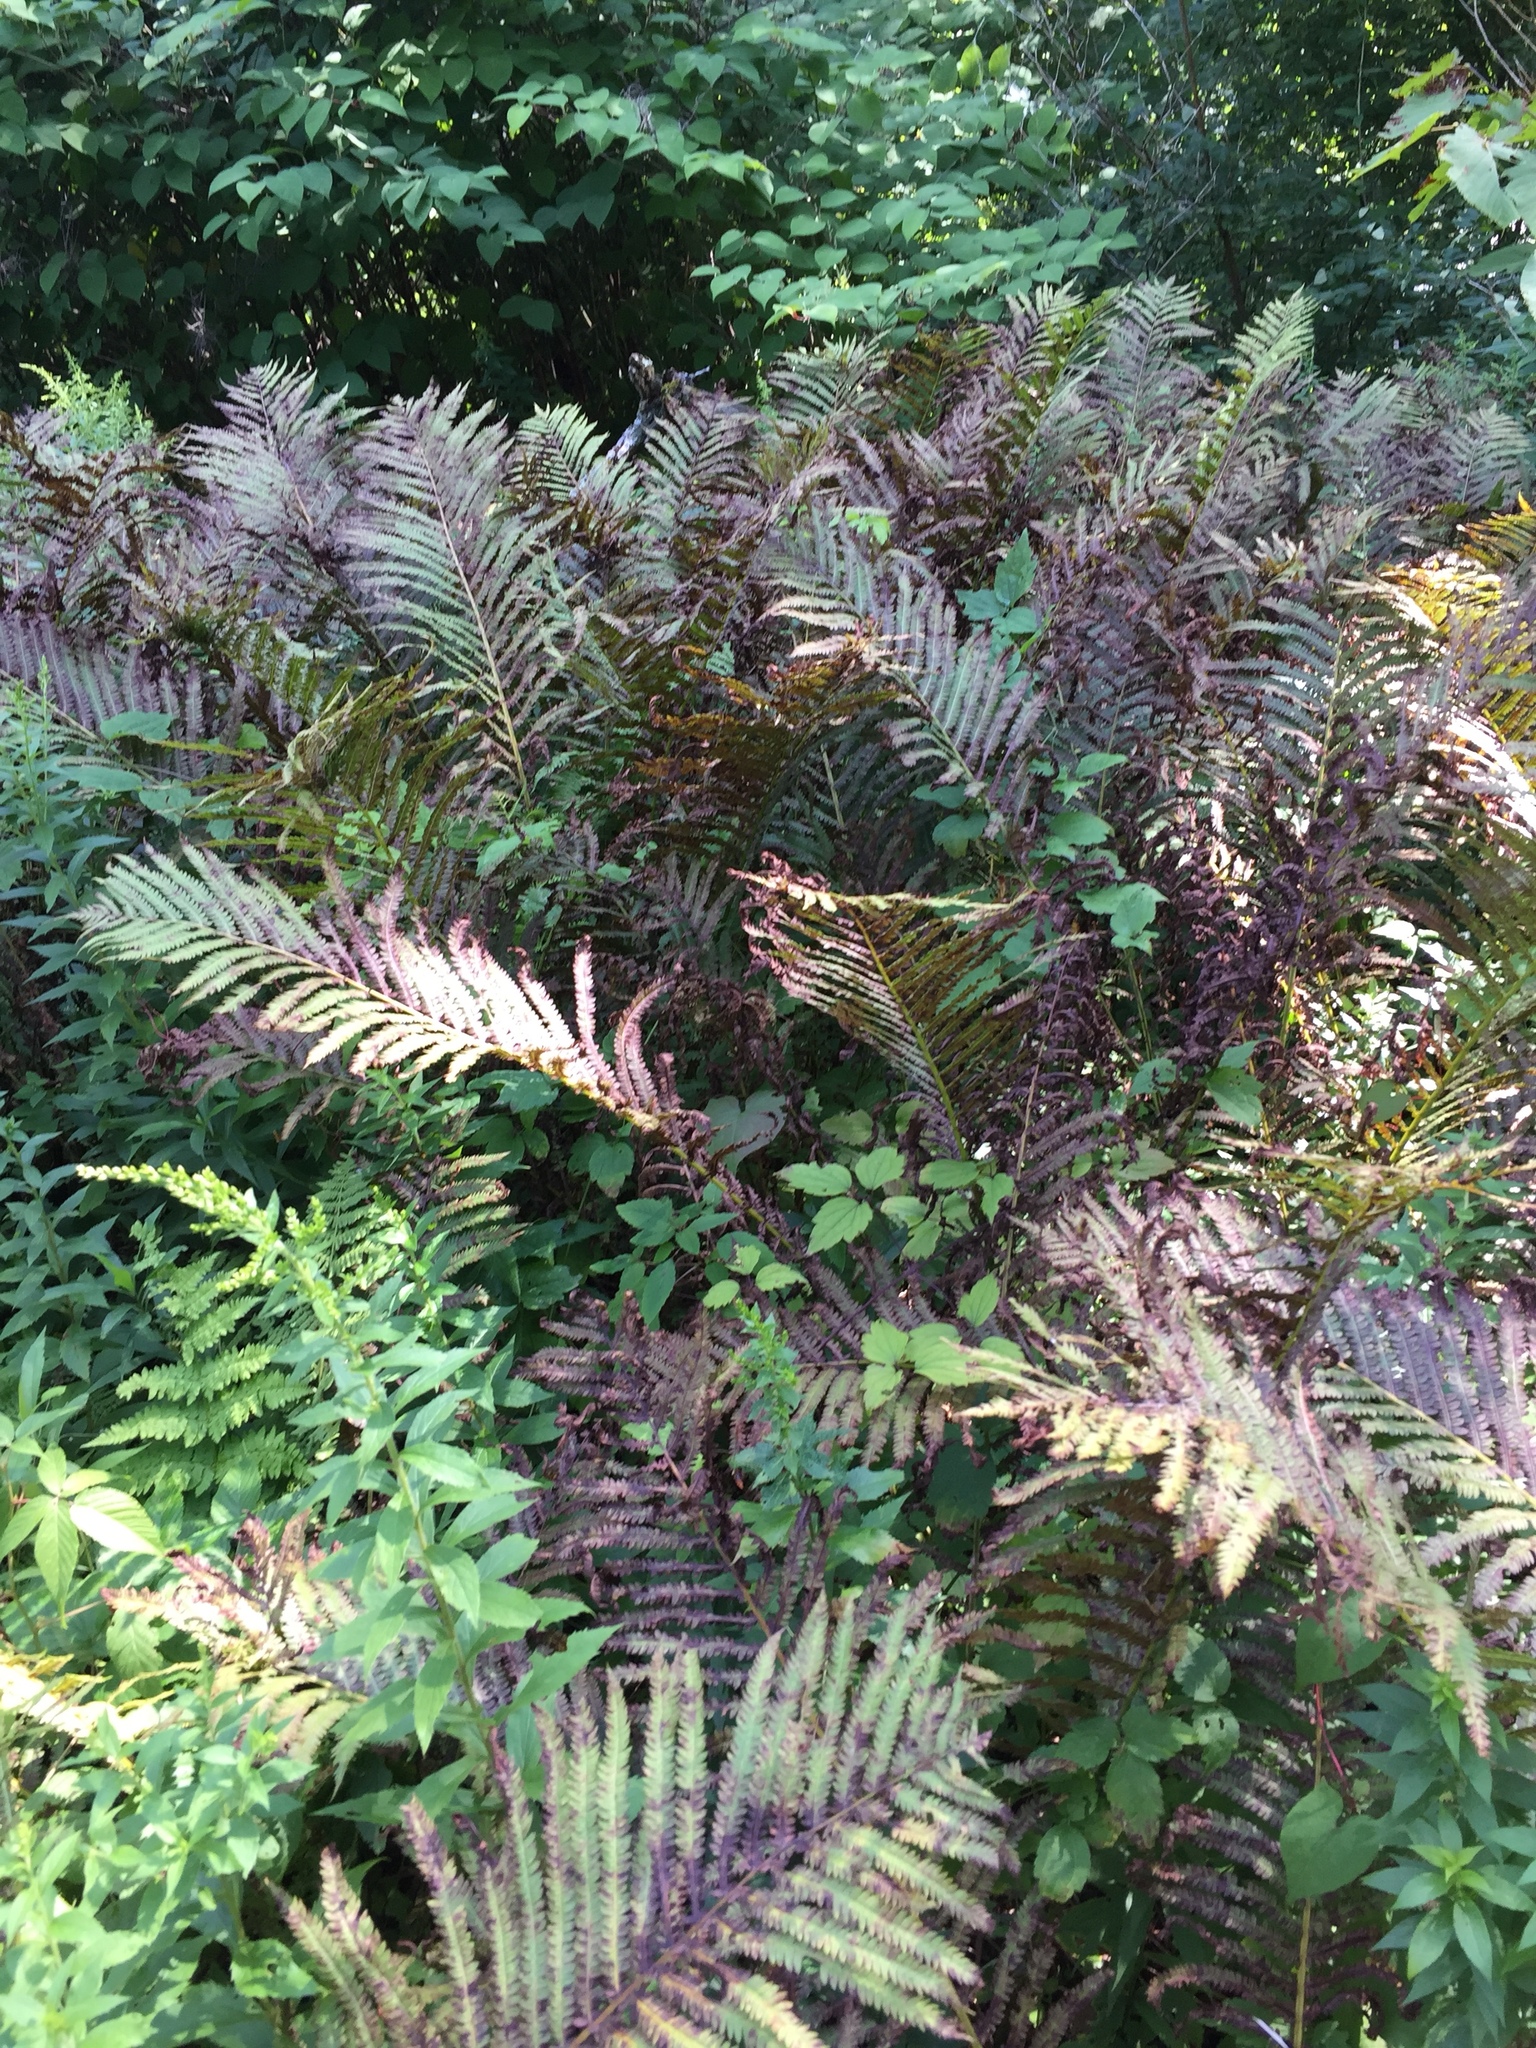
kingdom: Plantae
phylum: Tracheophyta
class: Polypodiopsida
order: Polypodiales
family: Onocleaceae
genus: Matteuccia
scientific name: Matteuccia struthiopteris
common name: Ostrich fern
